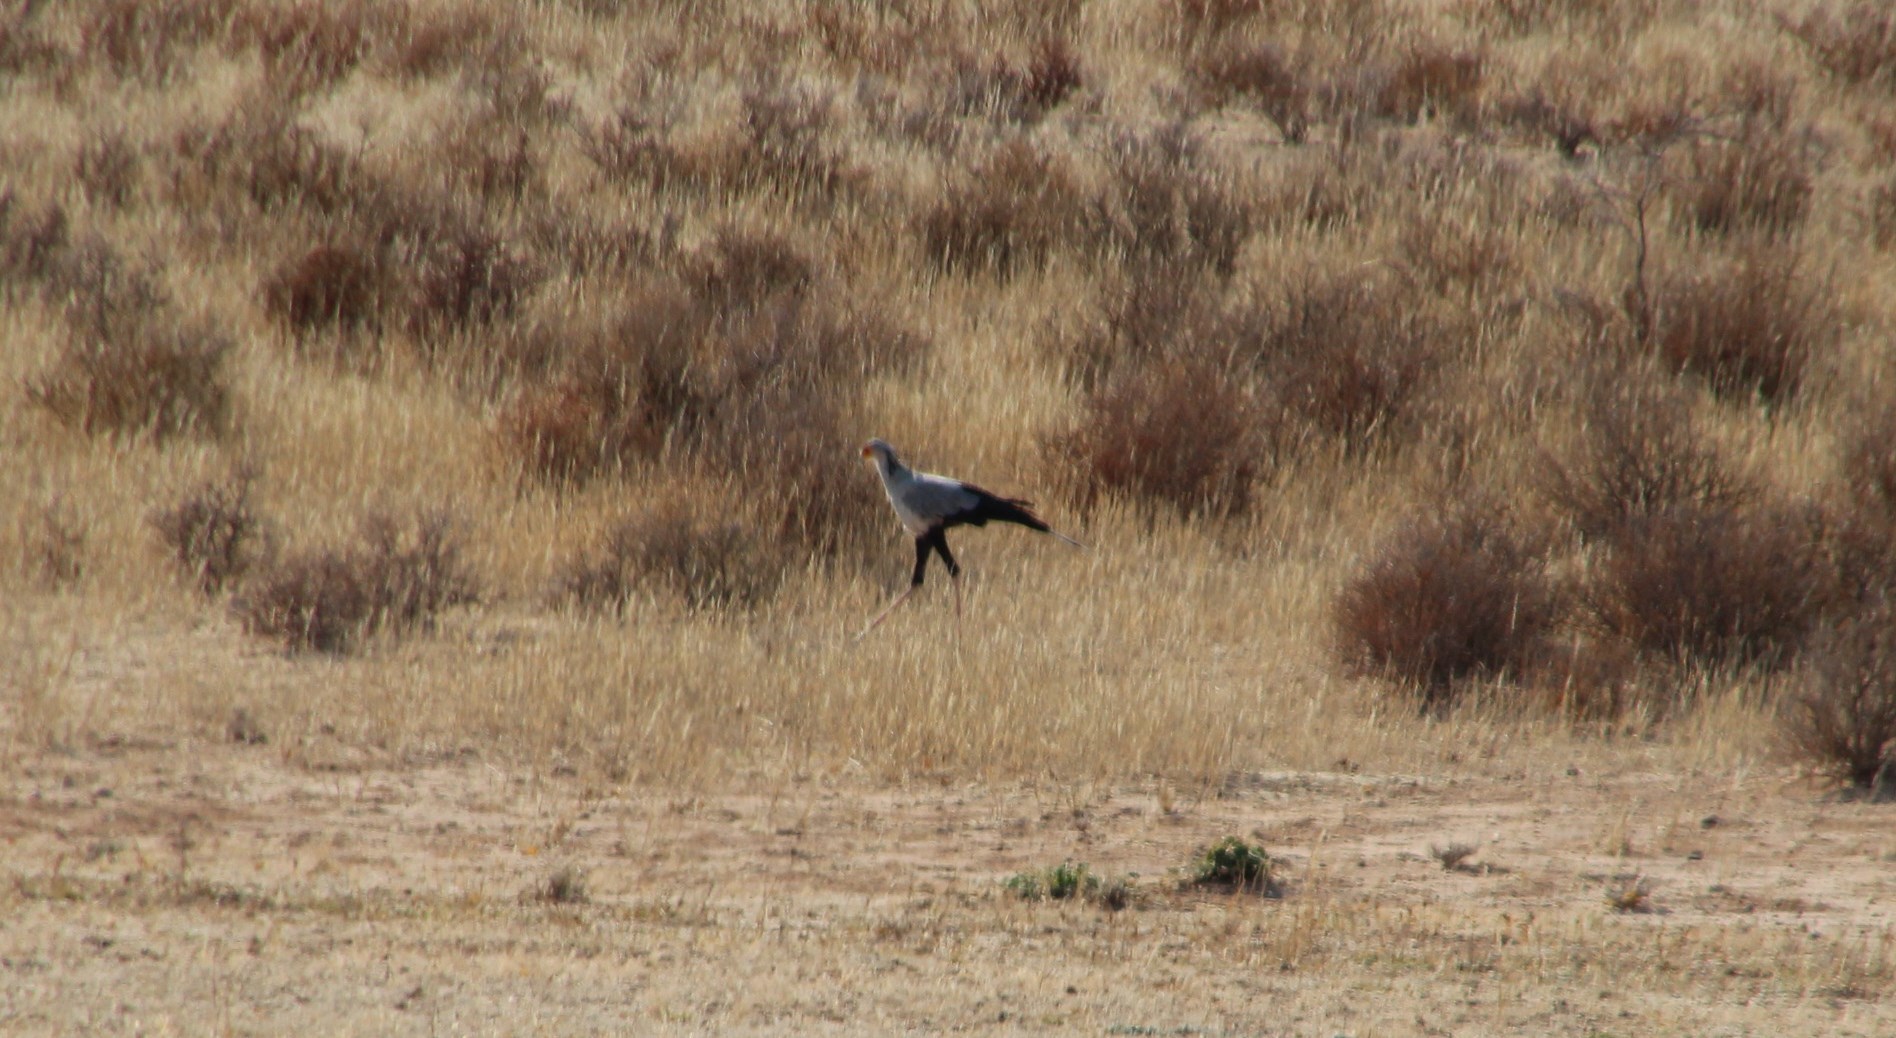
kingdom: Animalia
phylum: Chordata
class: Aves
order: Accipitriformes
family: Sagittariidae
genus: Sagittarius
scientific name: Sagittarius serpentarius
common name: Secretarybird
